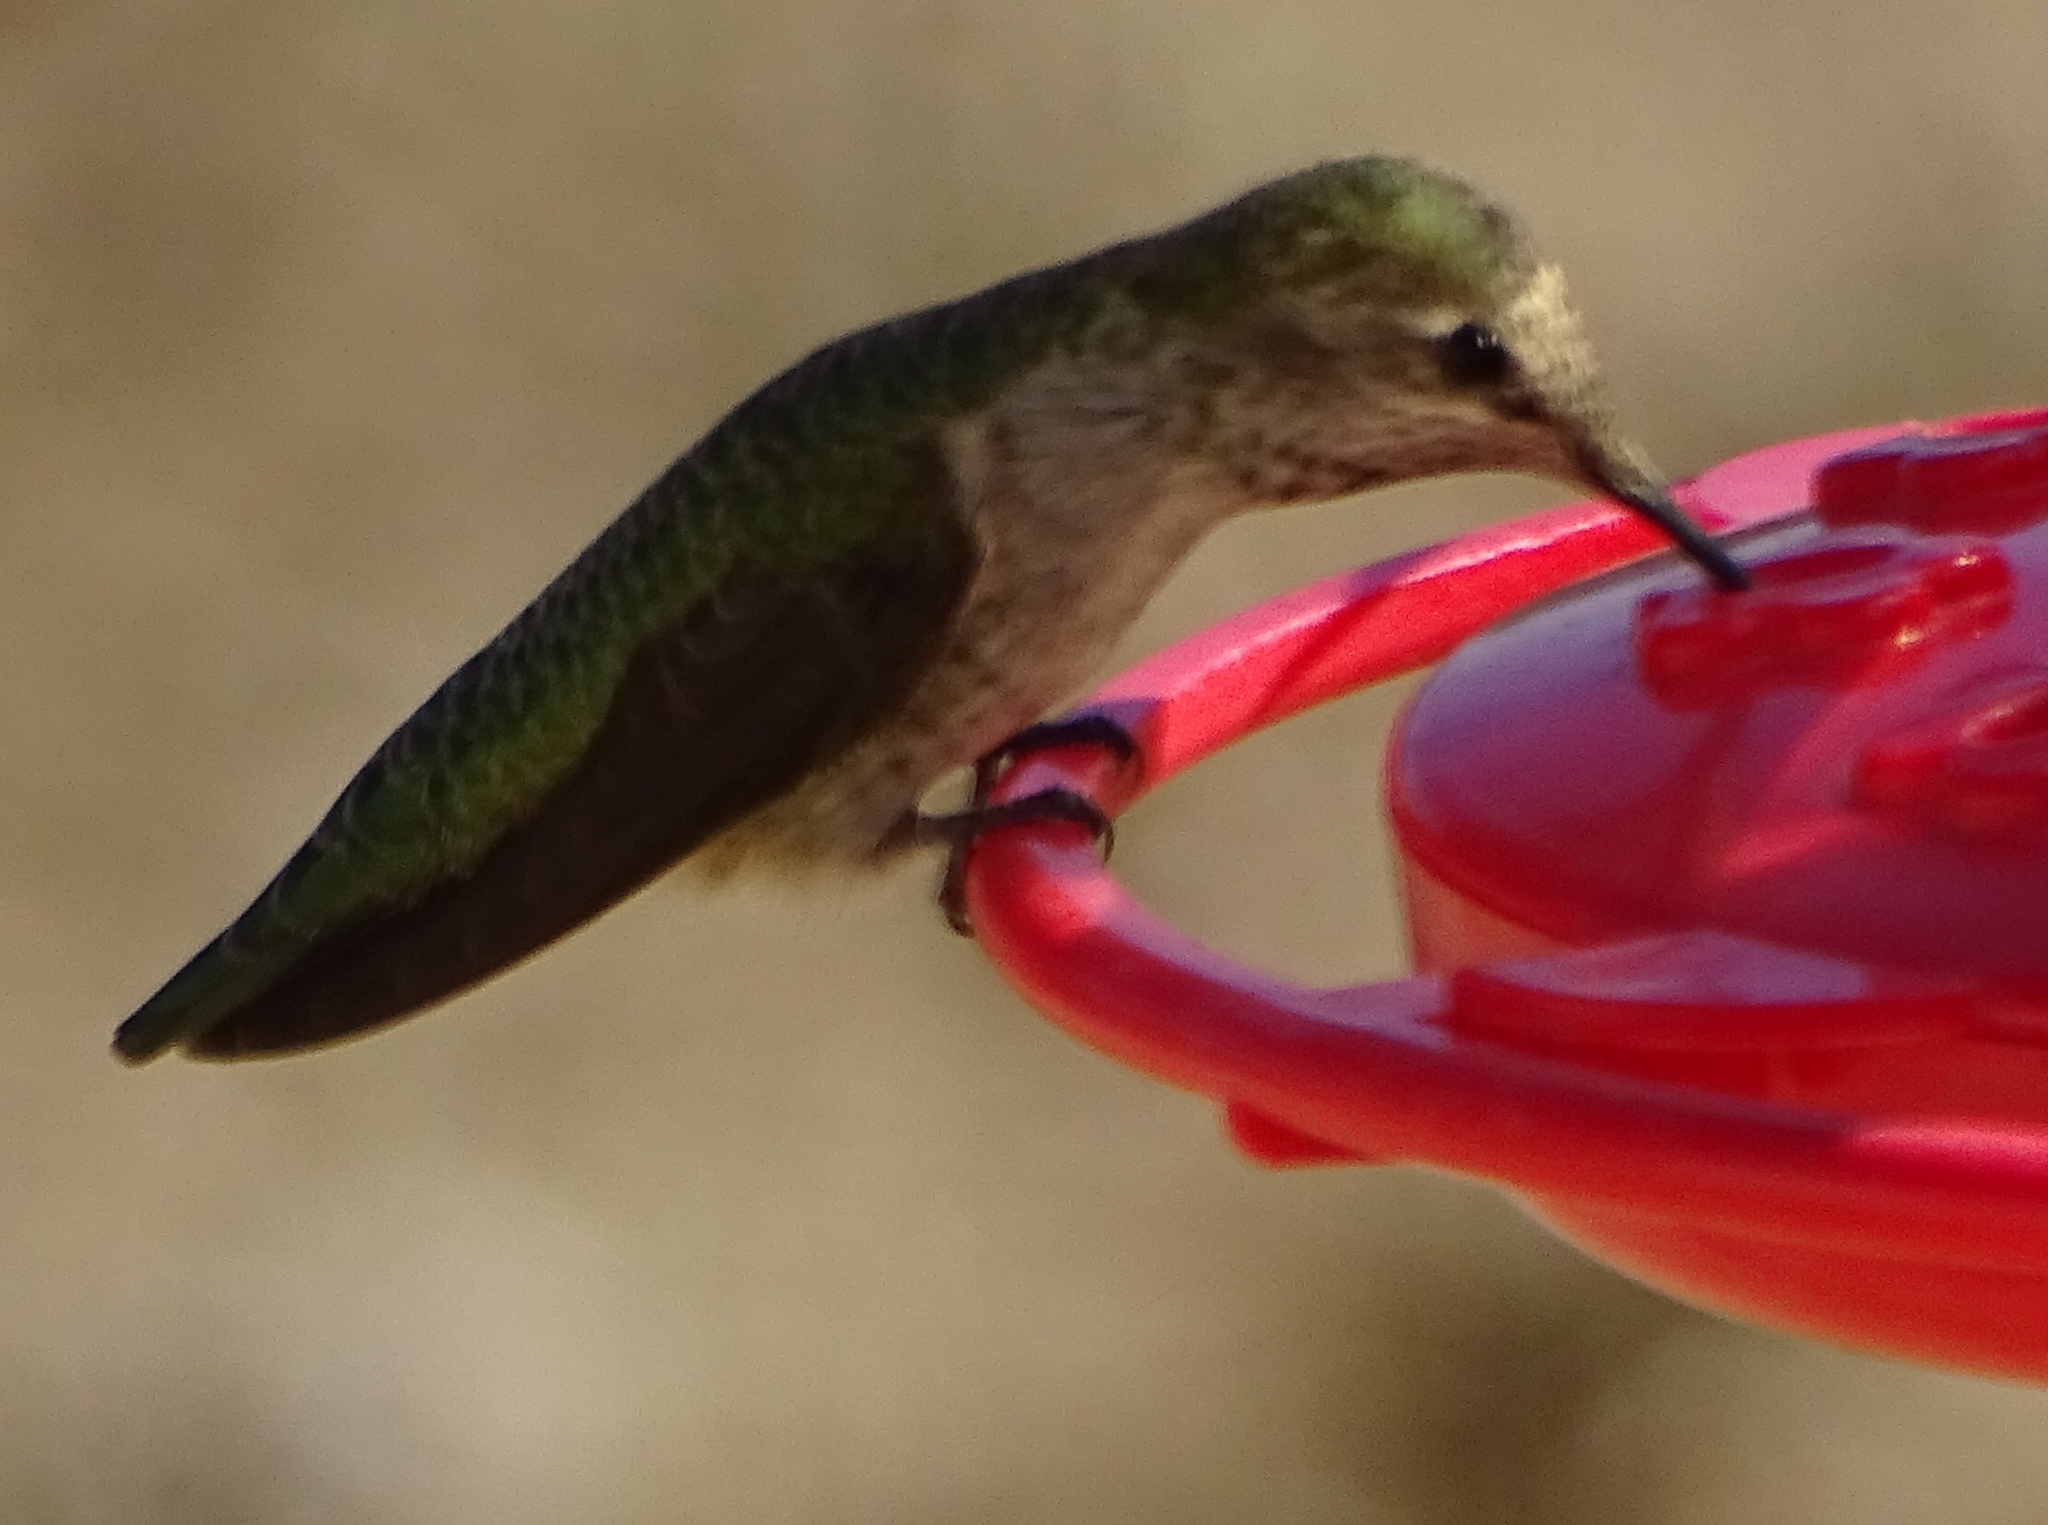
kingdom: Animalia
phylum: Chordata
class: Aves
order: Apodiformes
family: Trochilidae
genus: Calypte
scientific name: Calypte anna
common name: Anna's hummingbird
